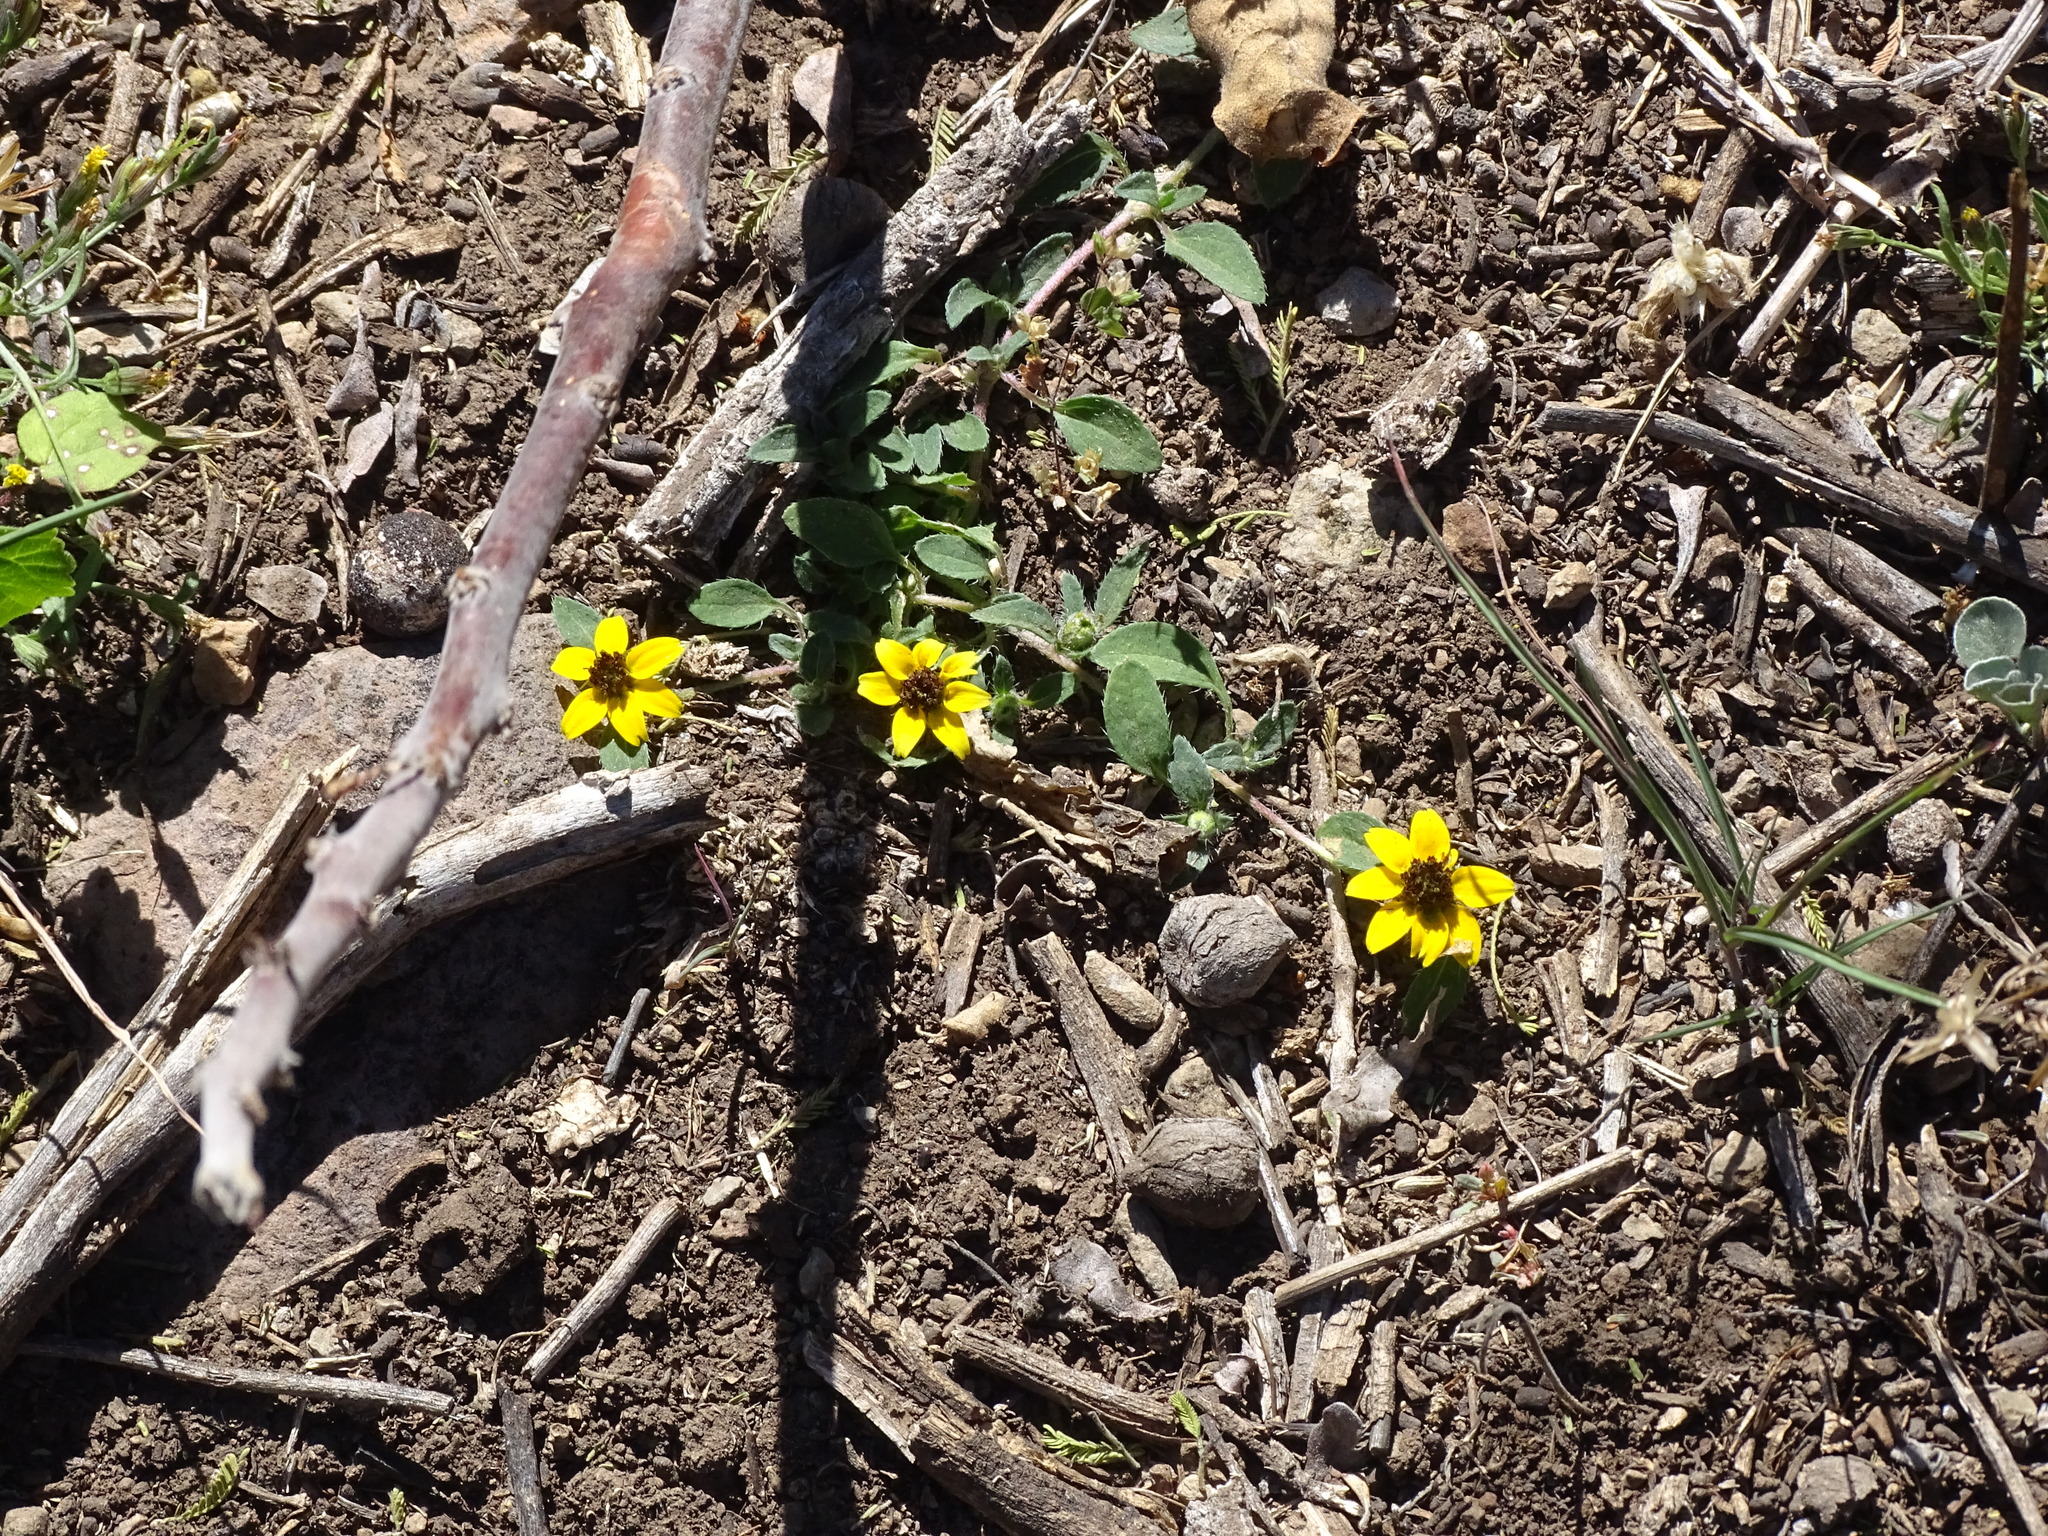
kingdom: Plantae
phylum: Tracheophyta
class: Magnoliopsida
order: Asterales
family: Asteraceae
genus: Sanvitalia
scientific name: Sanvitalia procumbens
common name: Mexican creeping zinnia
